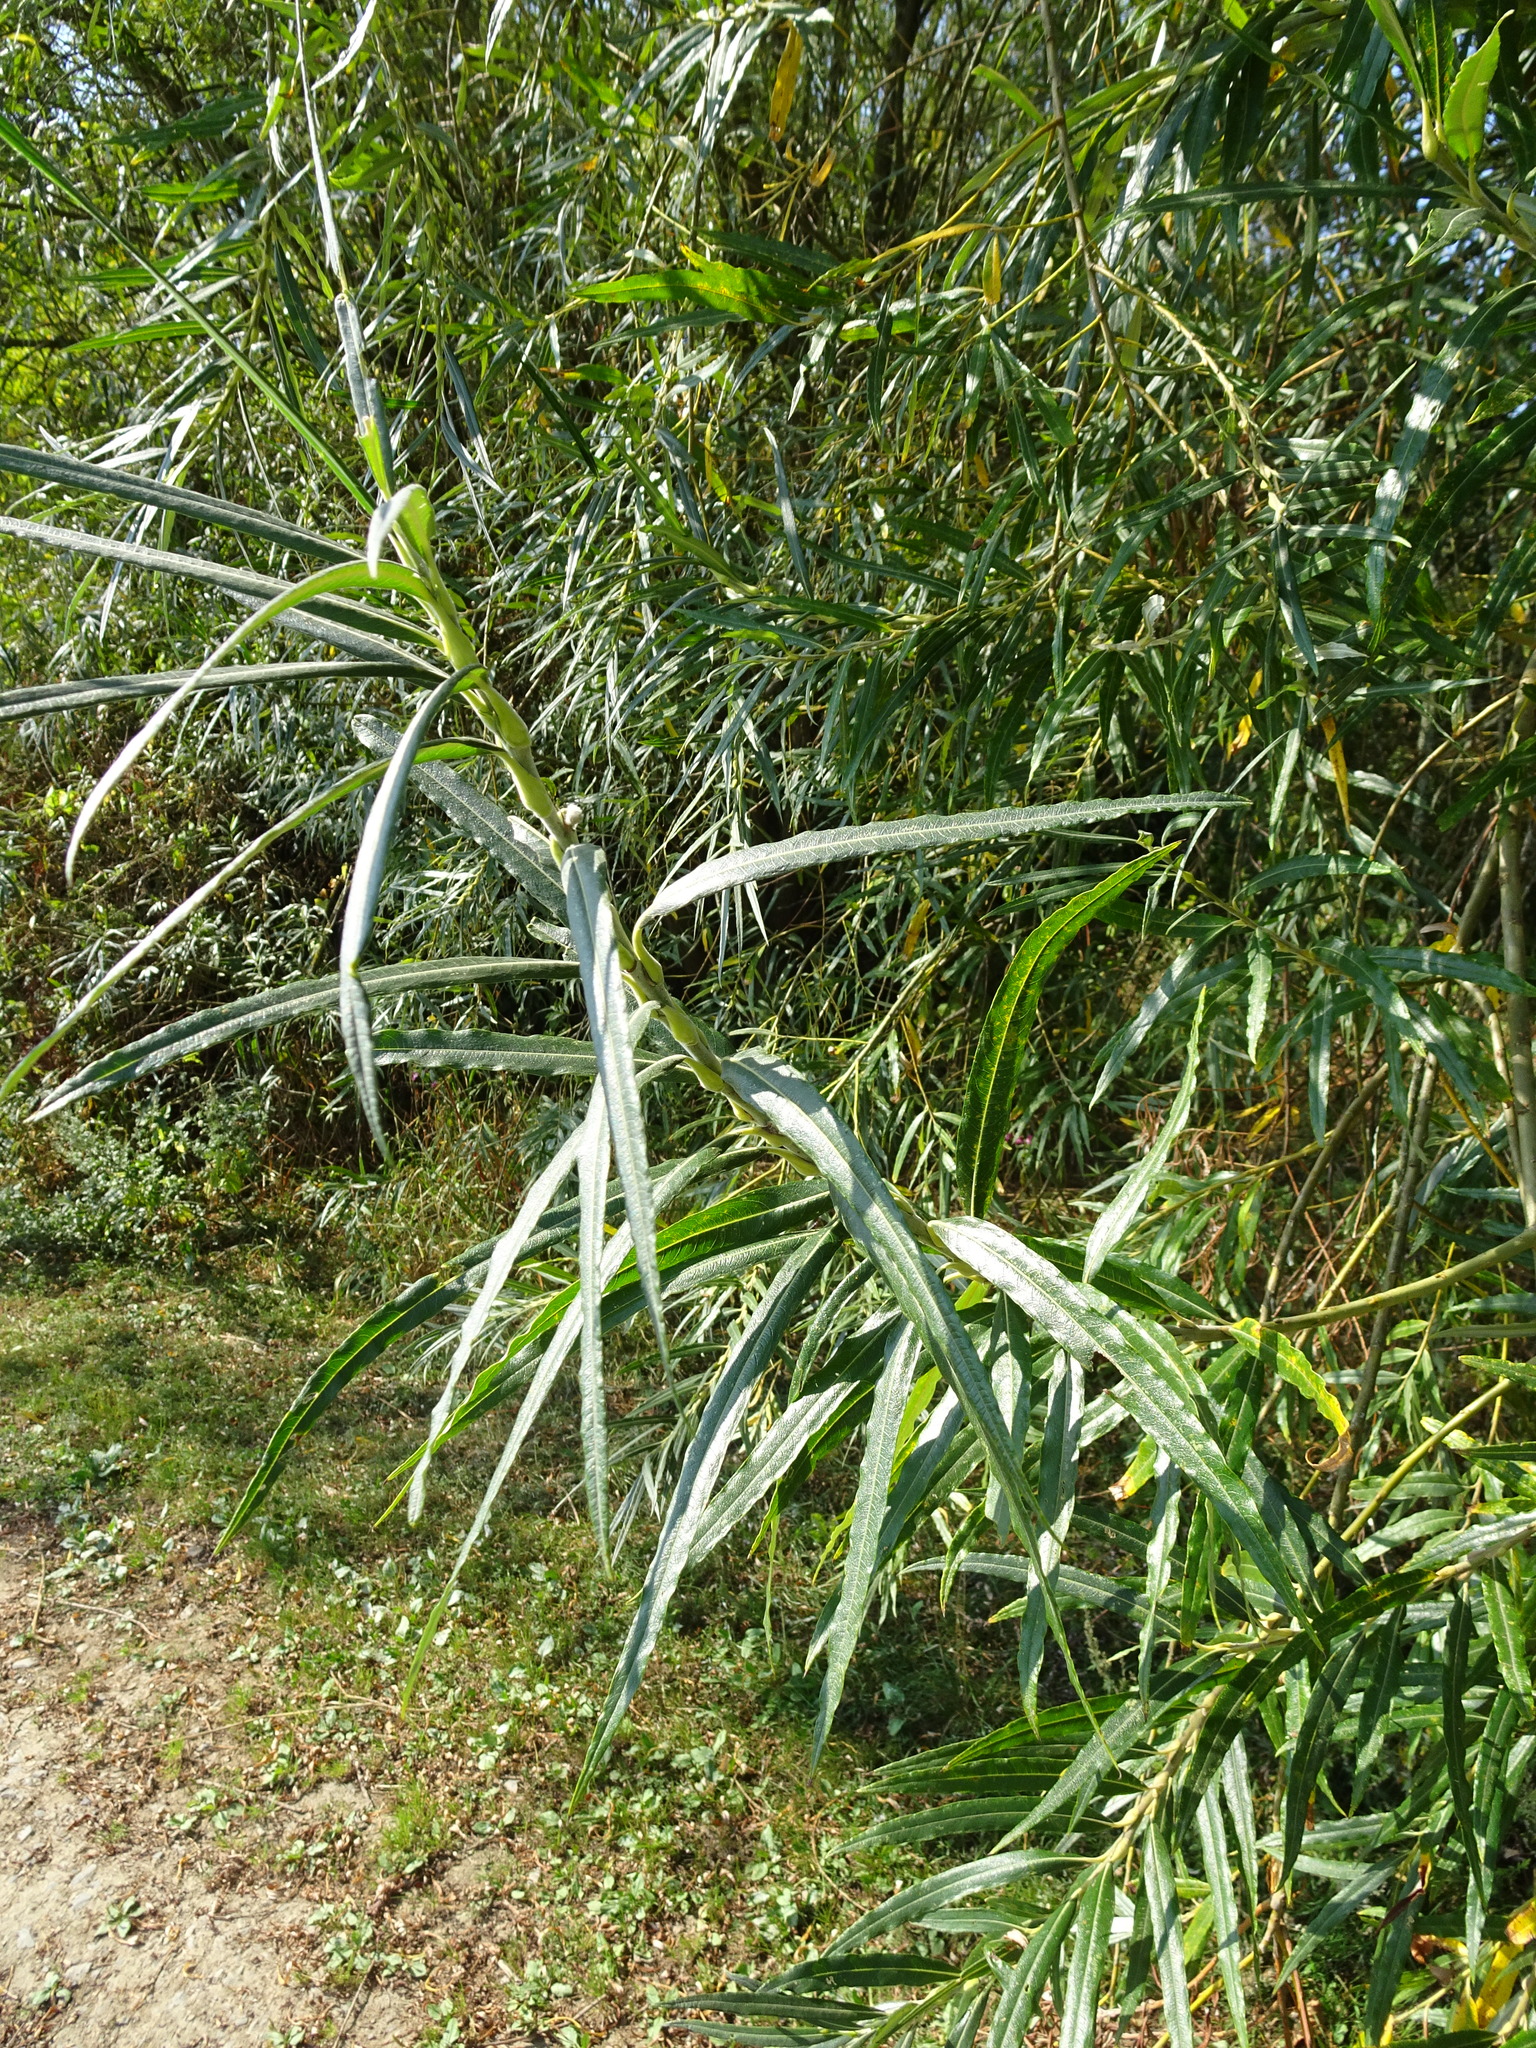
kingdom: Plantae
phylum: Tracheophyta
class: Magnoliopsida
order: Malpighiales
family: Salicaceae
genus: Salix
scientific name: Salix viminalis
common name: Osier
